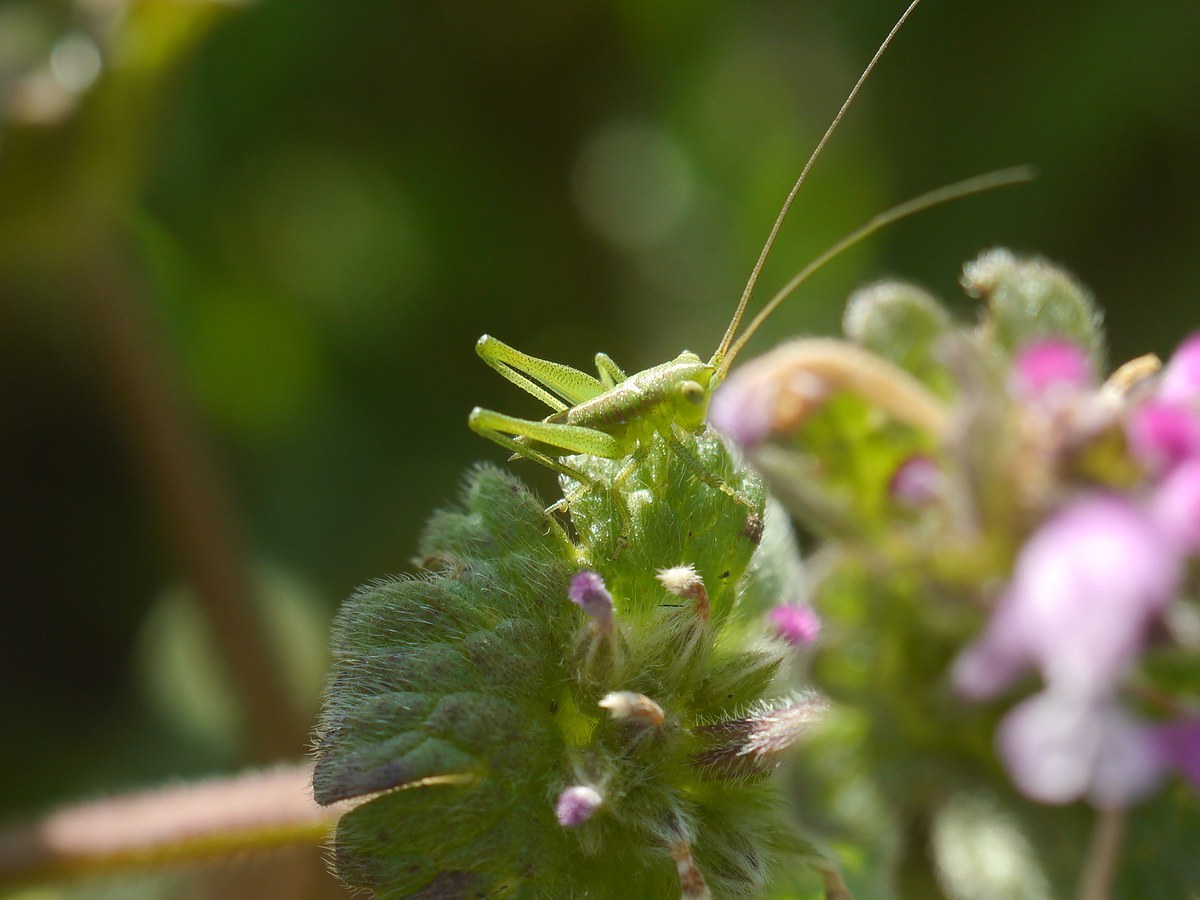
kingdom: Animalia
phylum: Arthropoda
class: Insecta
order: Orthoptera
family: Tettigoniidae
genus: Tettigonia
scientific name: Tettigonia
